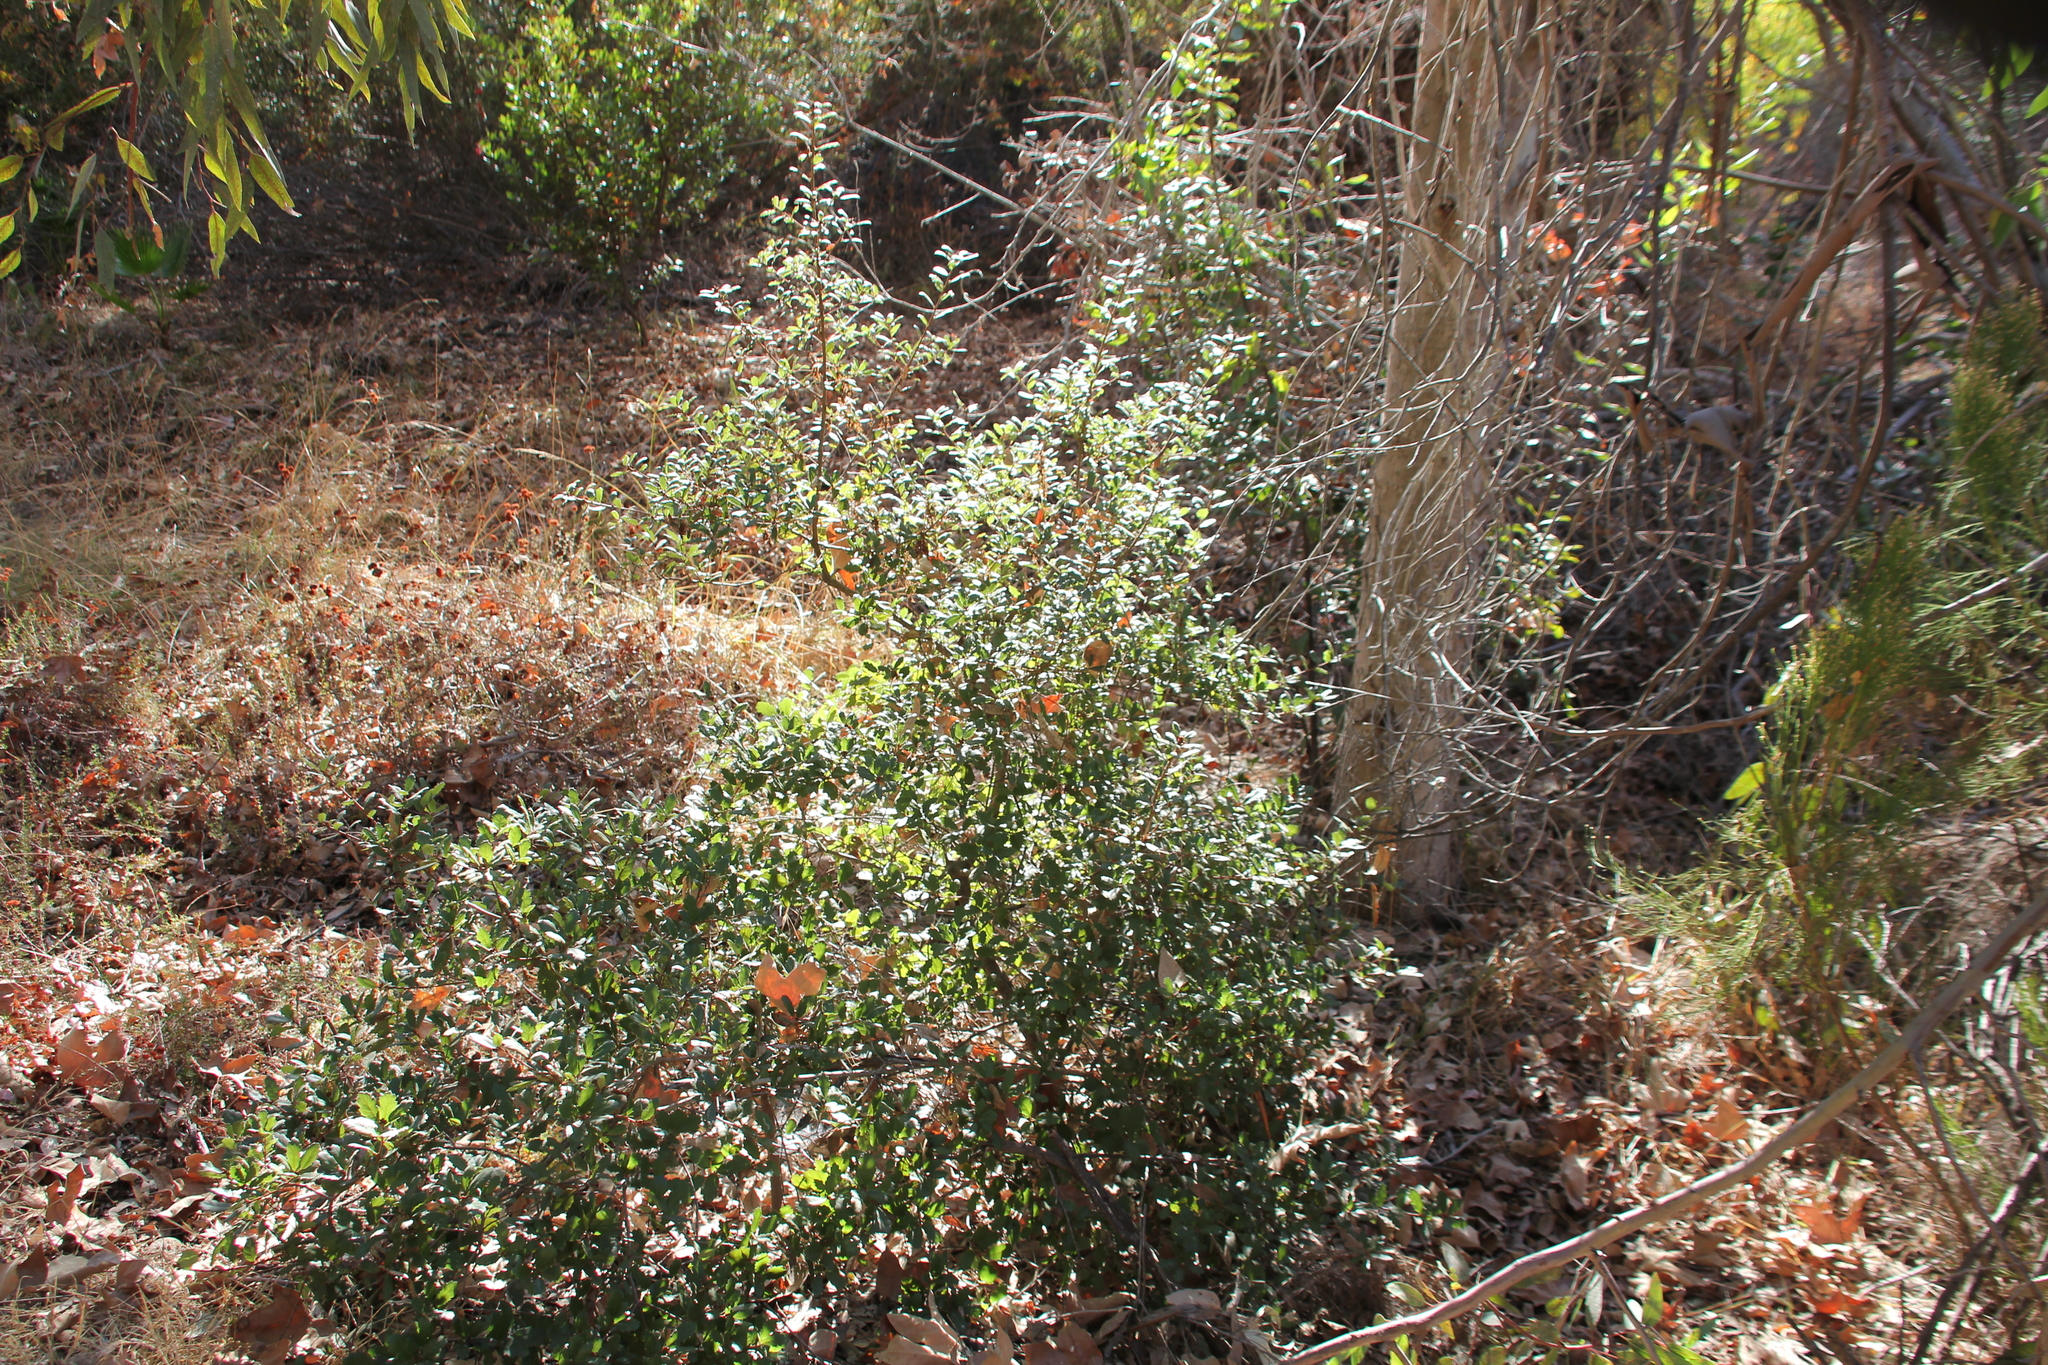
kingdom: Plantae
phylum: Tracheophyta
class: Magnoliopsida
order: Fagales
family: Fagaceae
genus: Quercus
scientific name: Quercus
